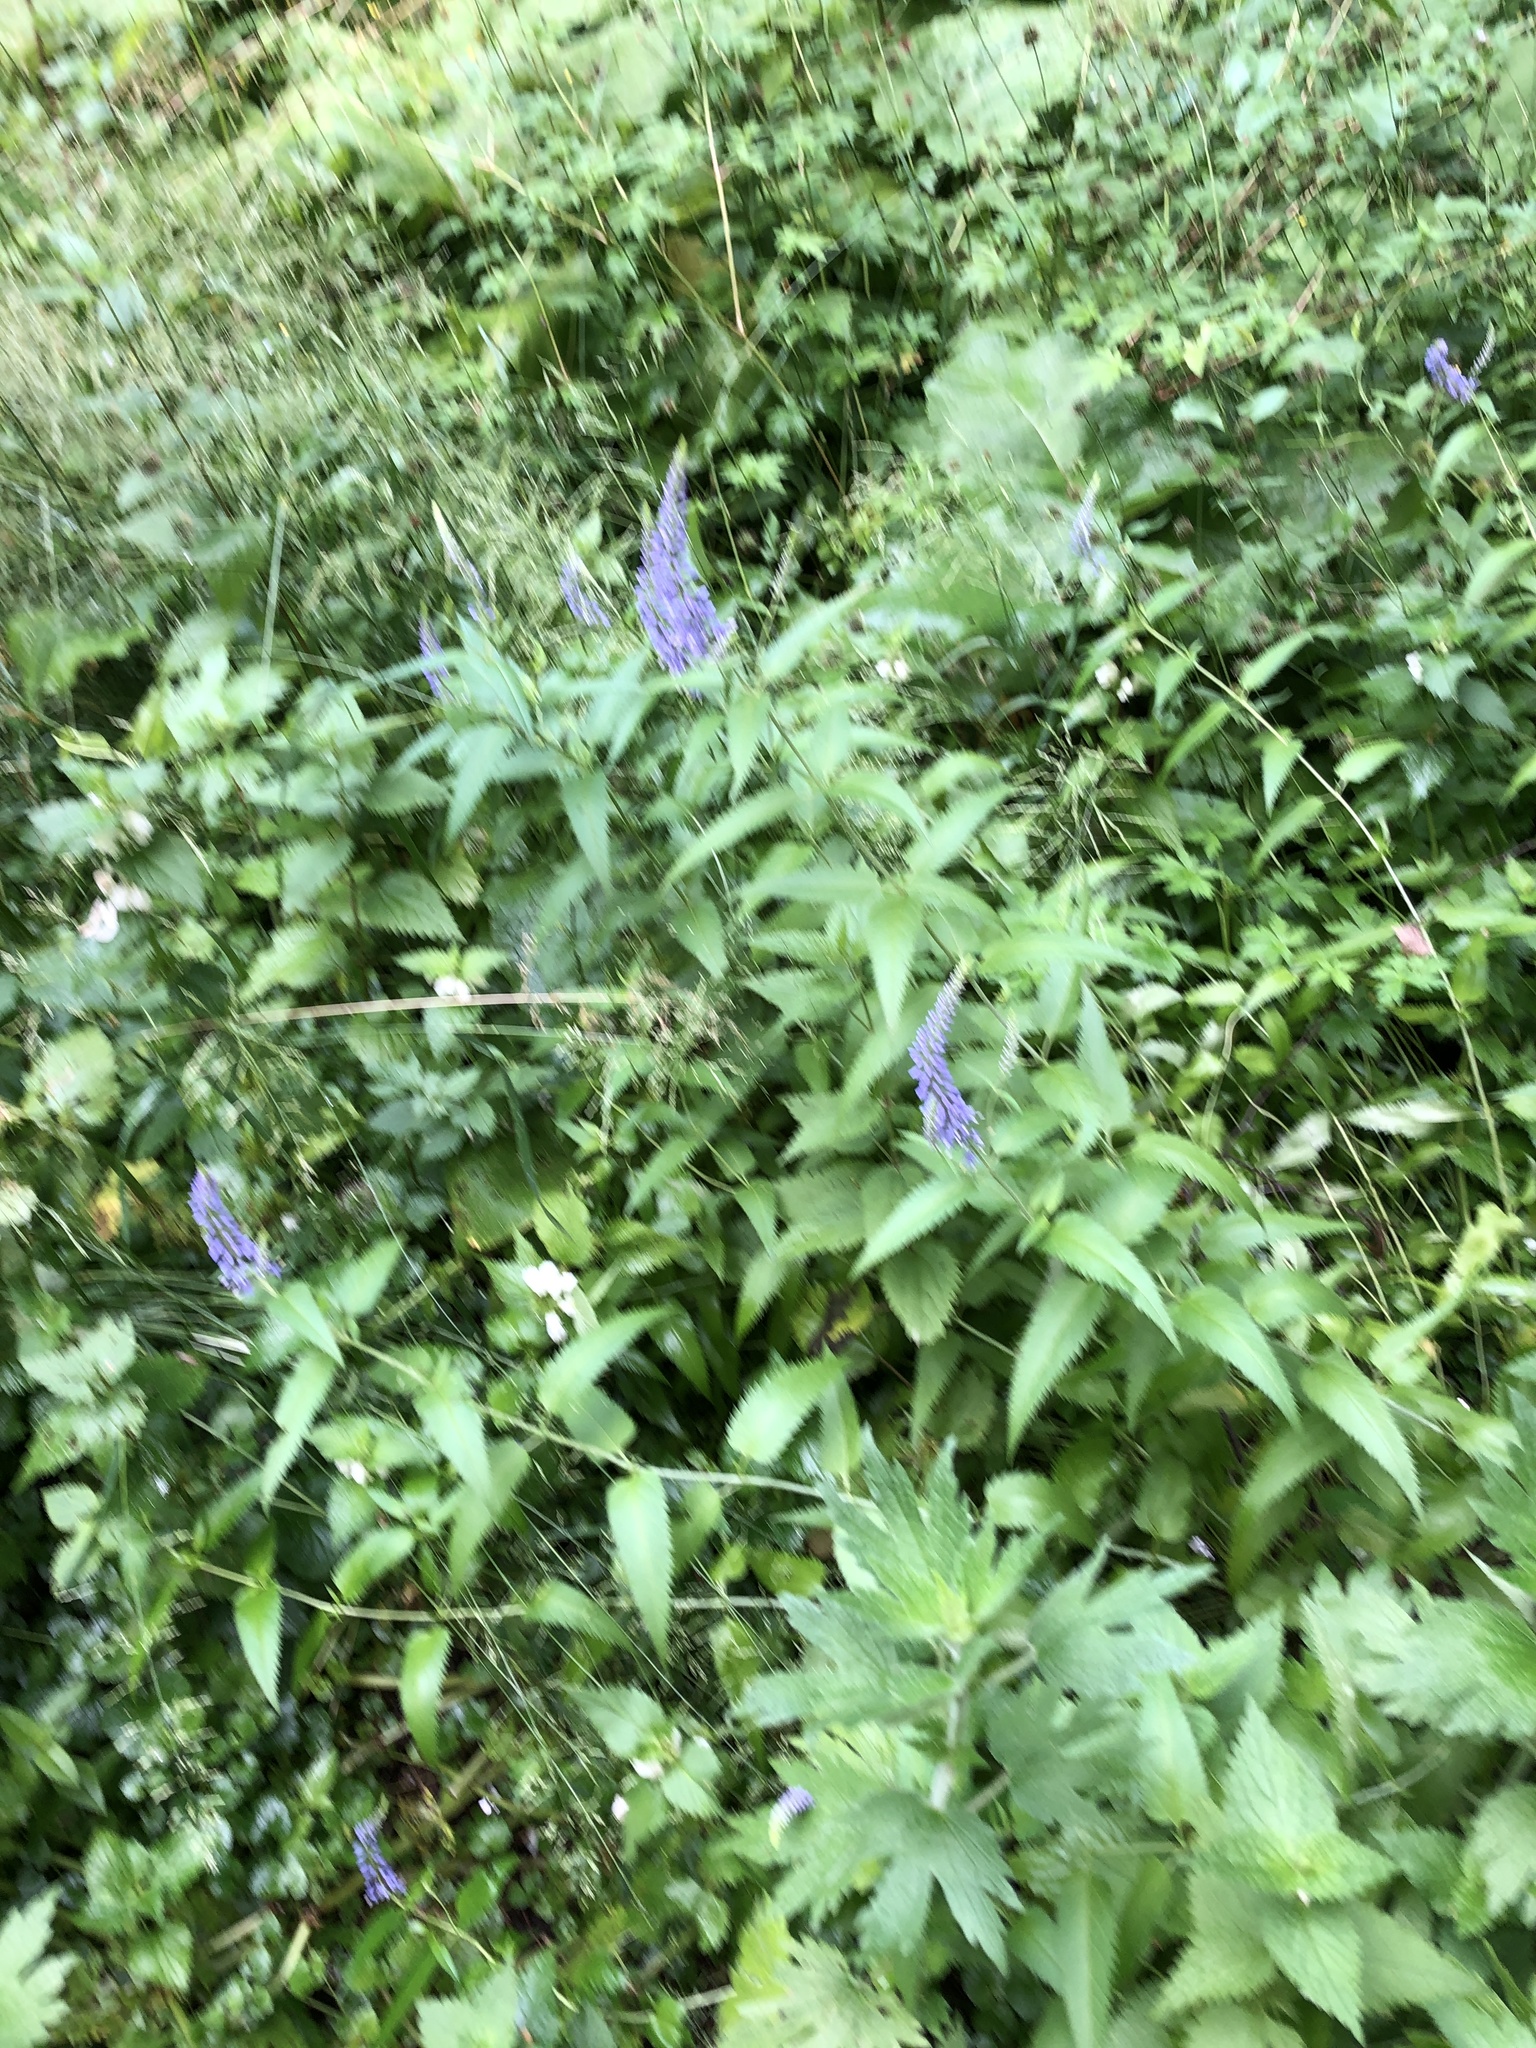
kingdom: Plantae
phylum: Tracheophyta
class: Magnoliopsida
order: Lamiales
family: Plantaginaceae
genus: Veronica
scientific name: Veronica longifolia
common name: Garden speedwell
